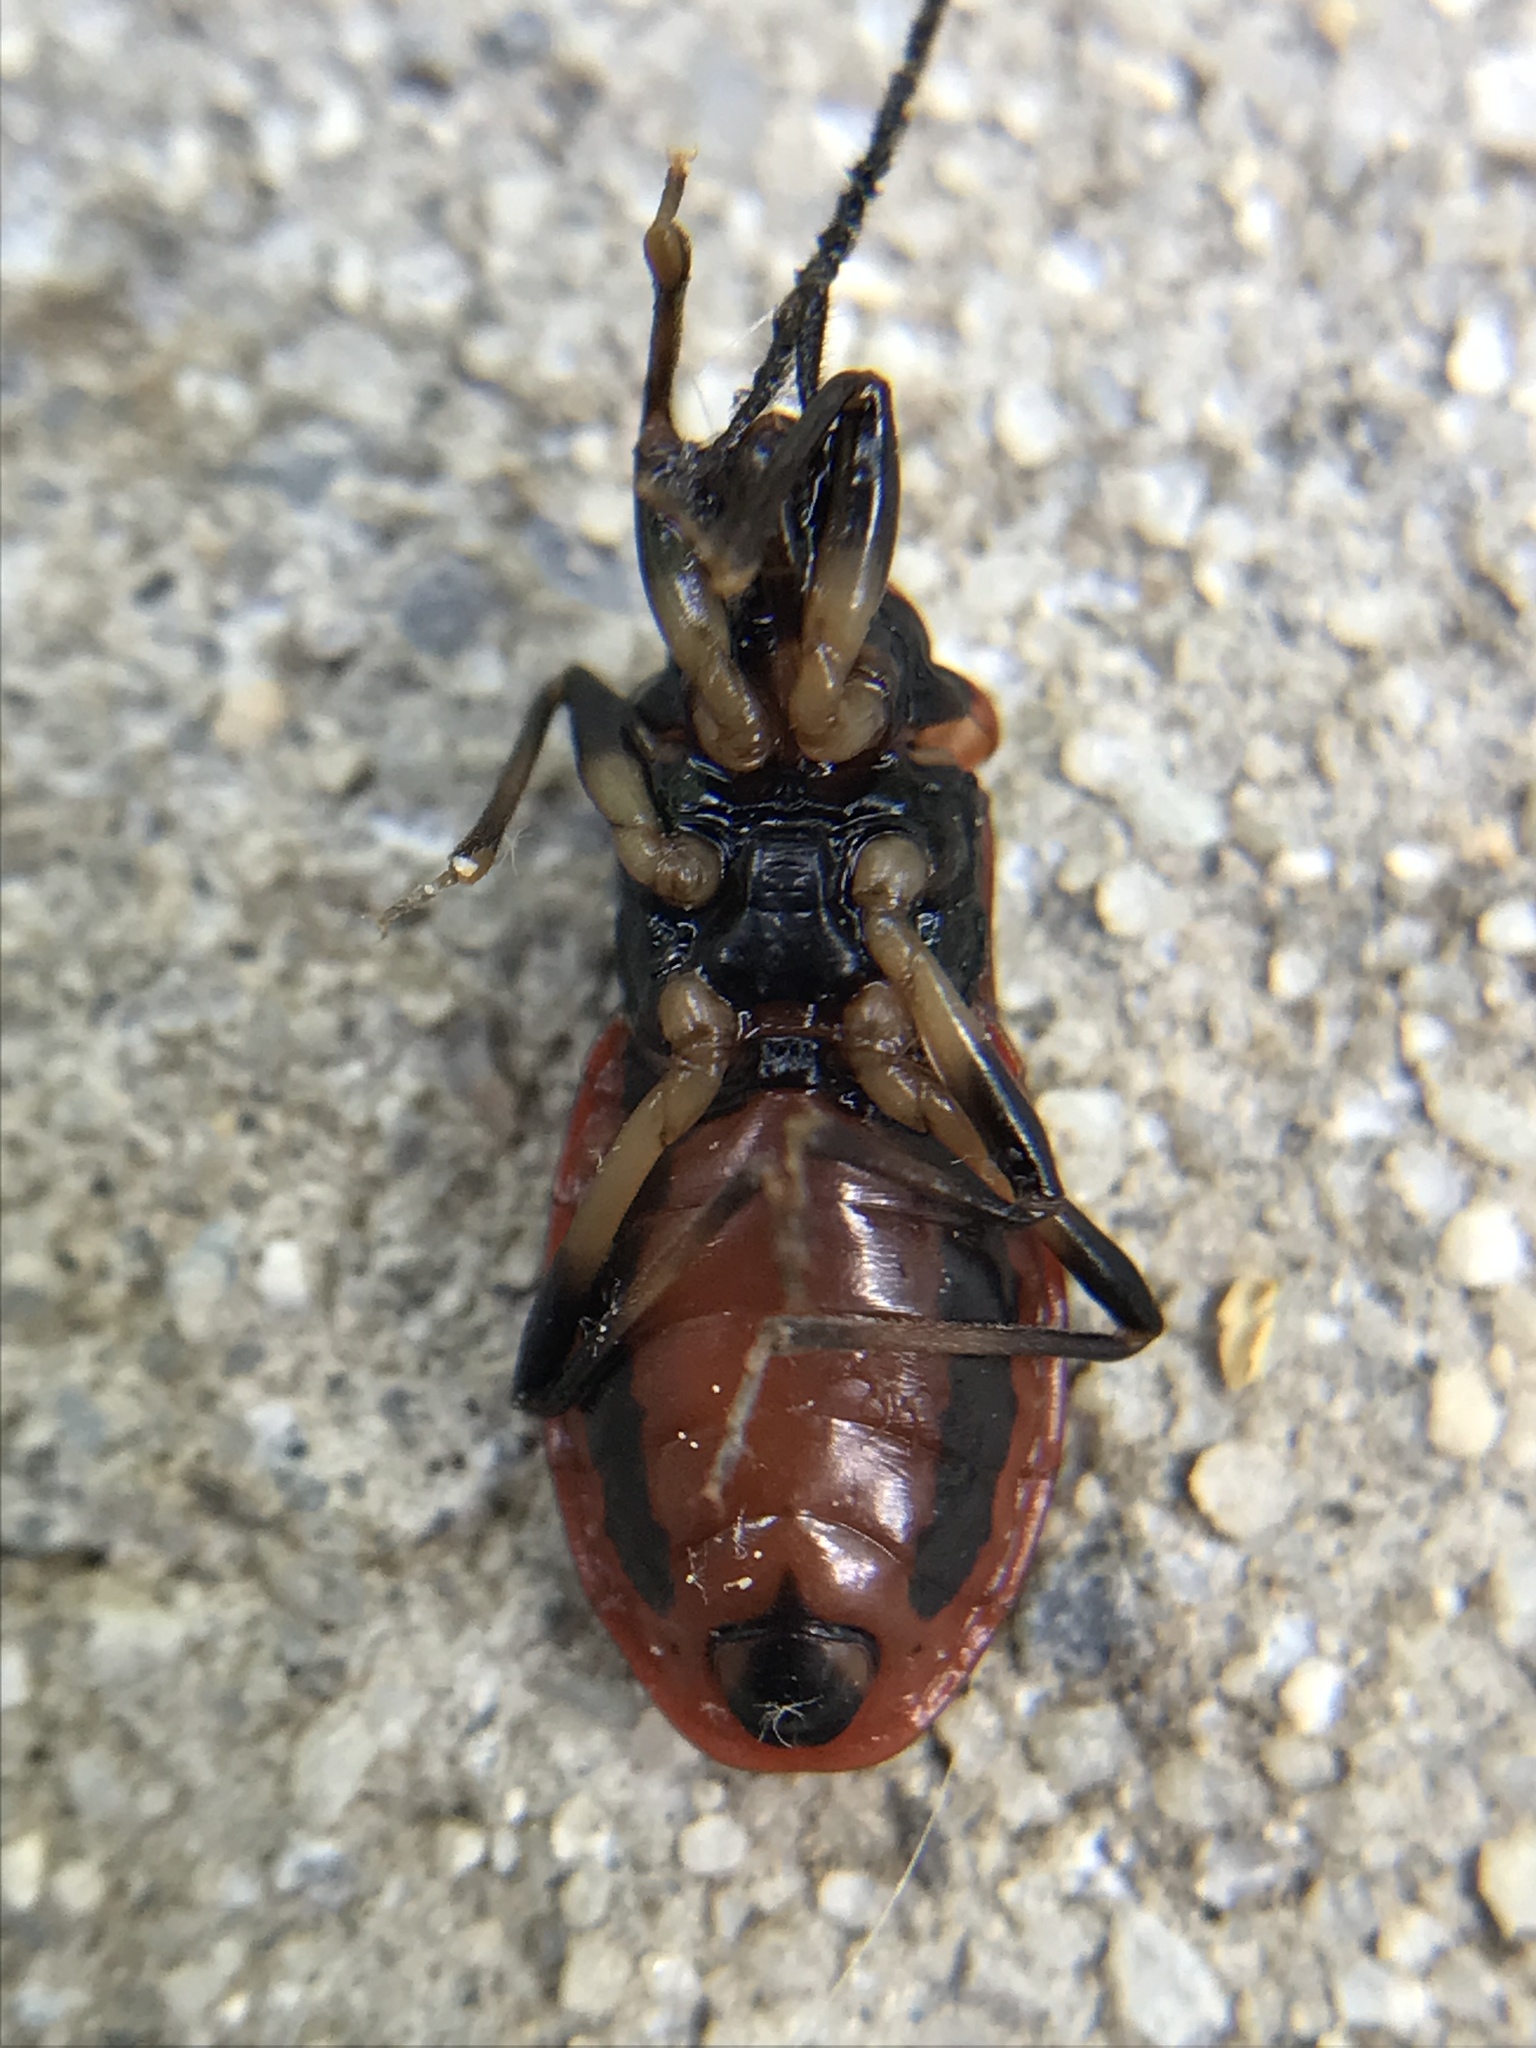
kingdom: Animalia
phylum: Arthropoda
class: Insecta
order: Hemiptera
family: Reduviidae
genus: Rhiginia
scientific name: Rhiginia cruciata
